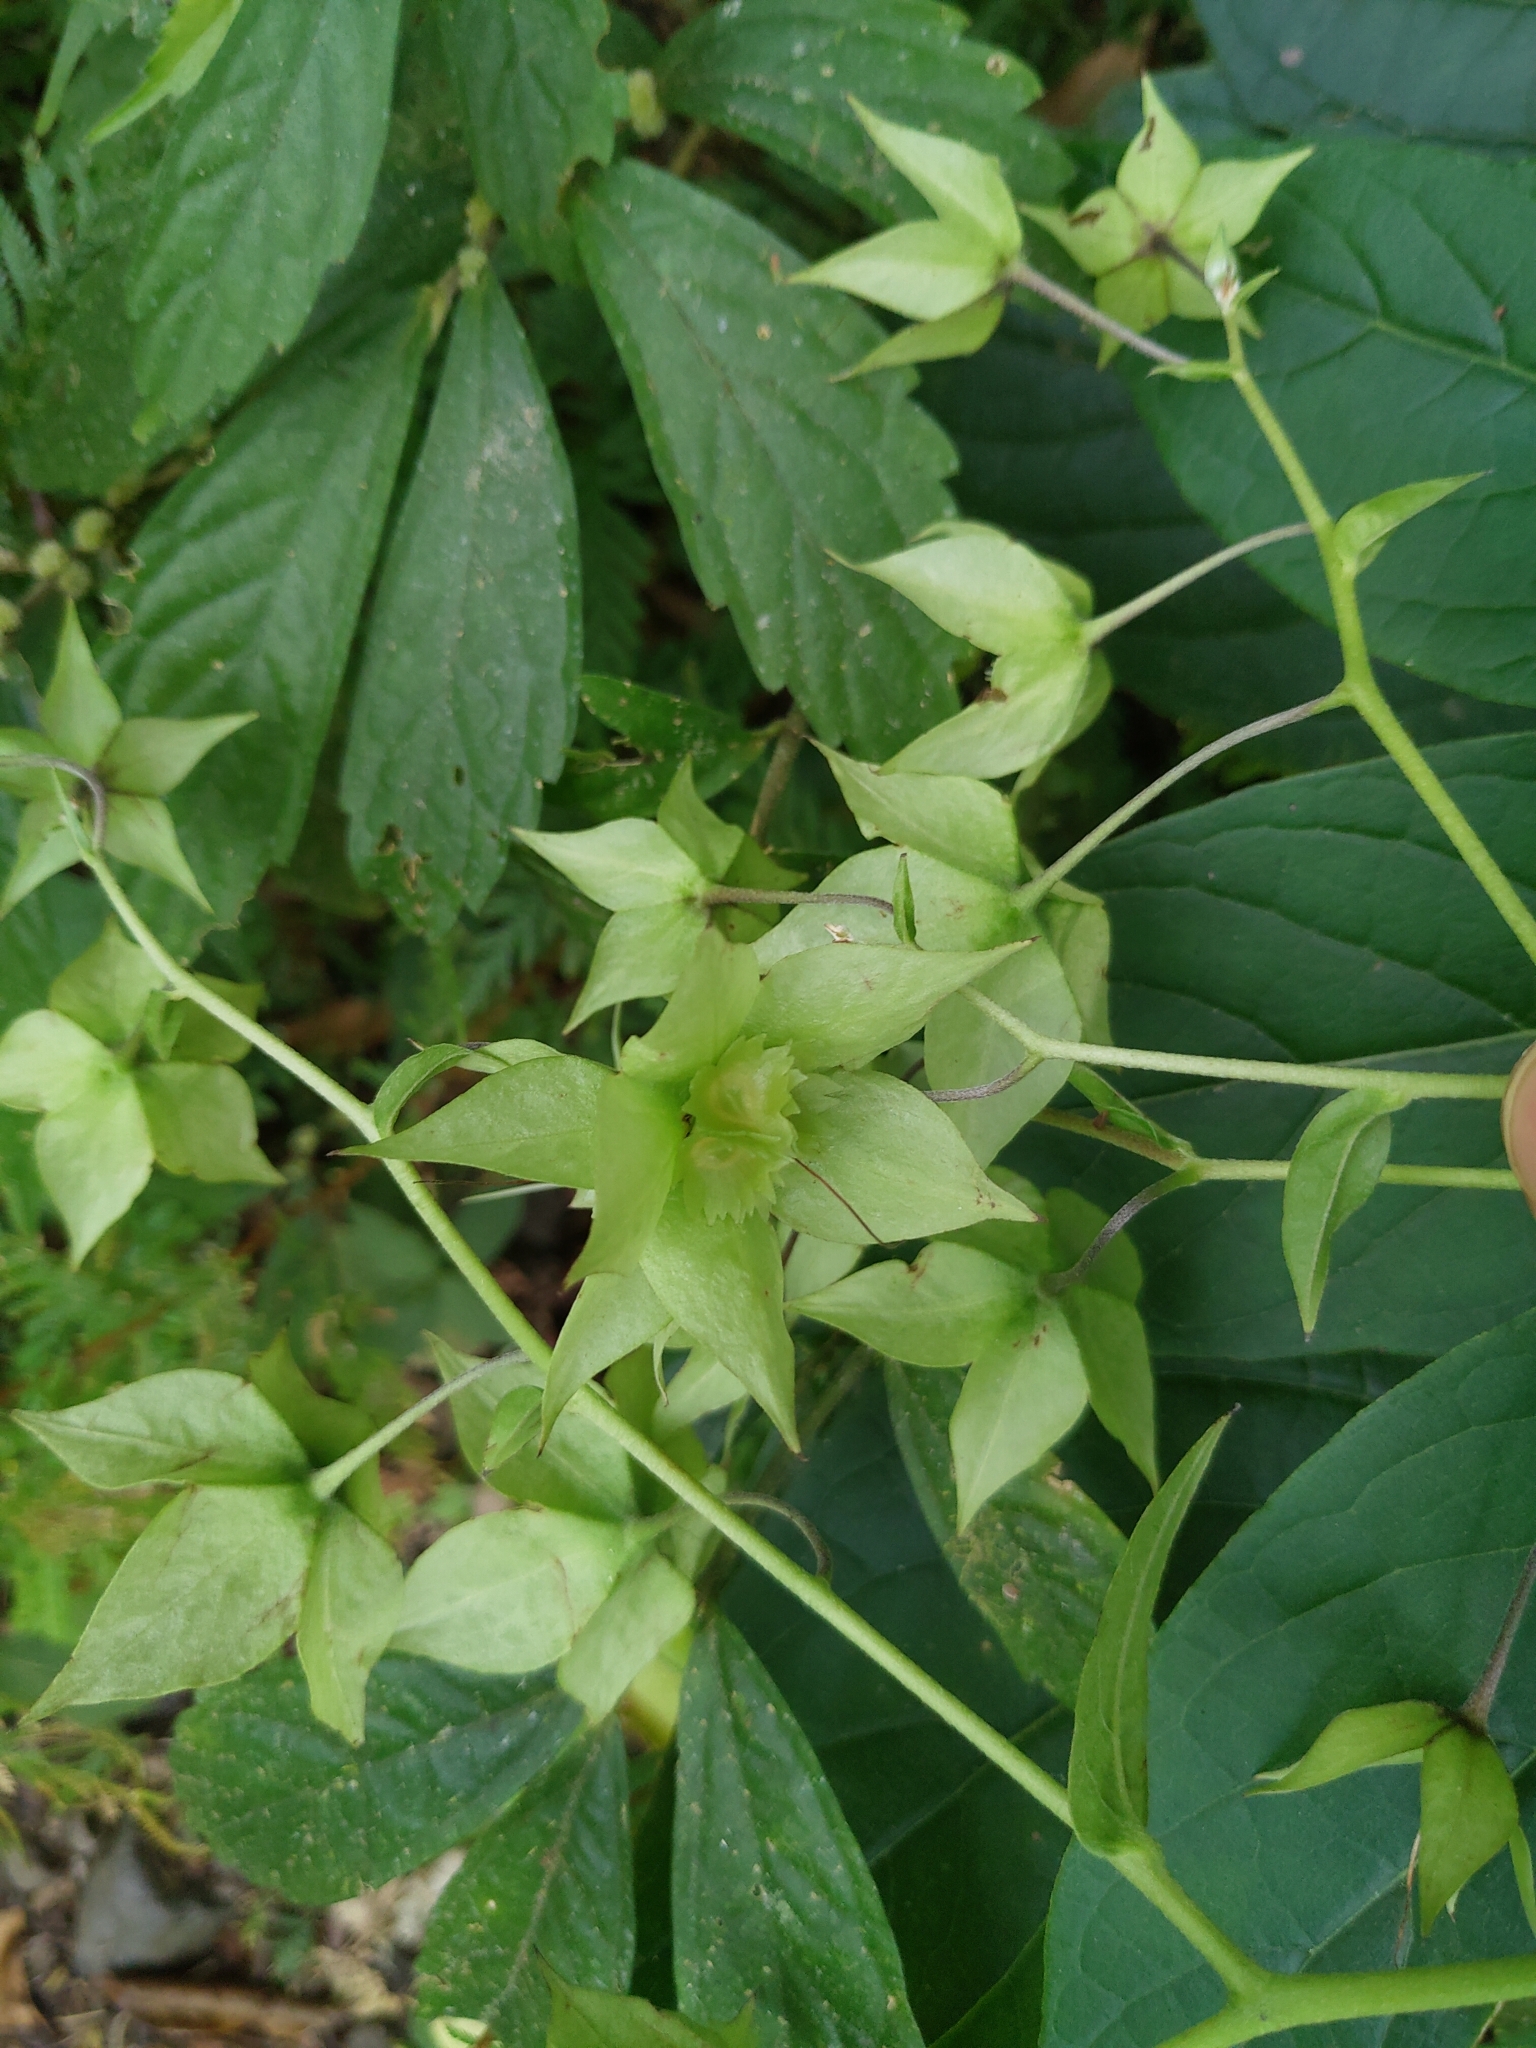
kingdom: Plantae
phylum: Tracheophyta
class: Magnoliopsida
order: Boraginales
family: Boraginaceae
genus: Trichodesma
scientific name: Trichodesma calycosum
